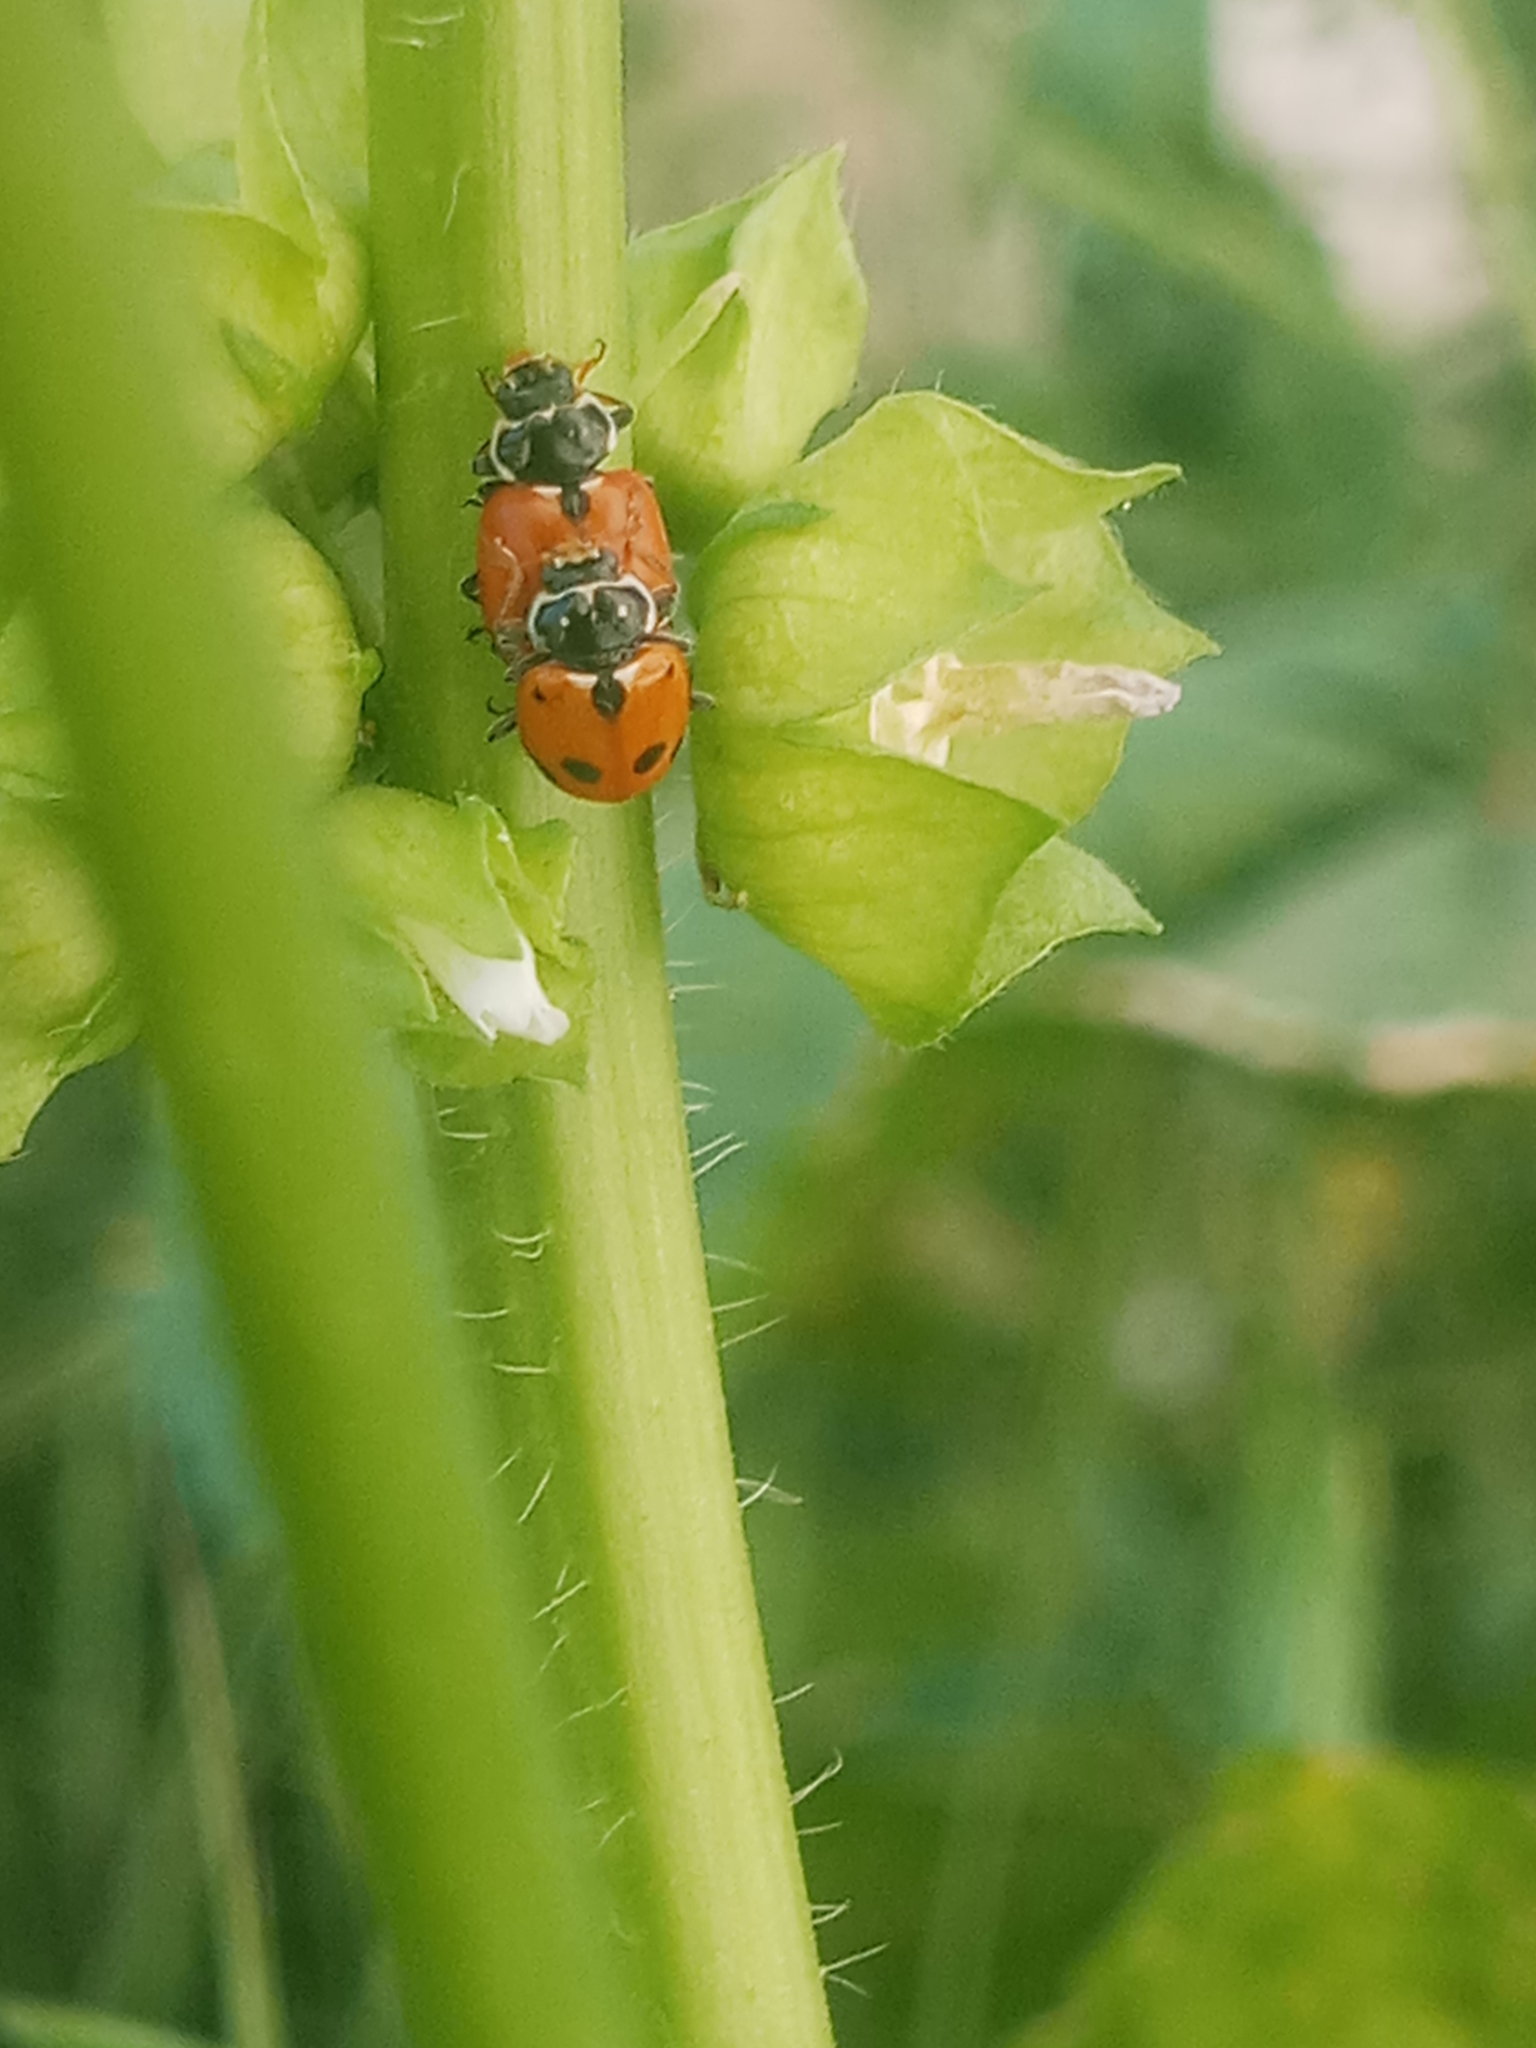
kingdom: Animalia
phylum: Arthropoda
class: Insecta
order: Coleoptera
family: Coccinellidae
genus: Hippodamia
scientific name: Hippodamia variegata
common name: Ladybird beetle
